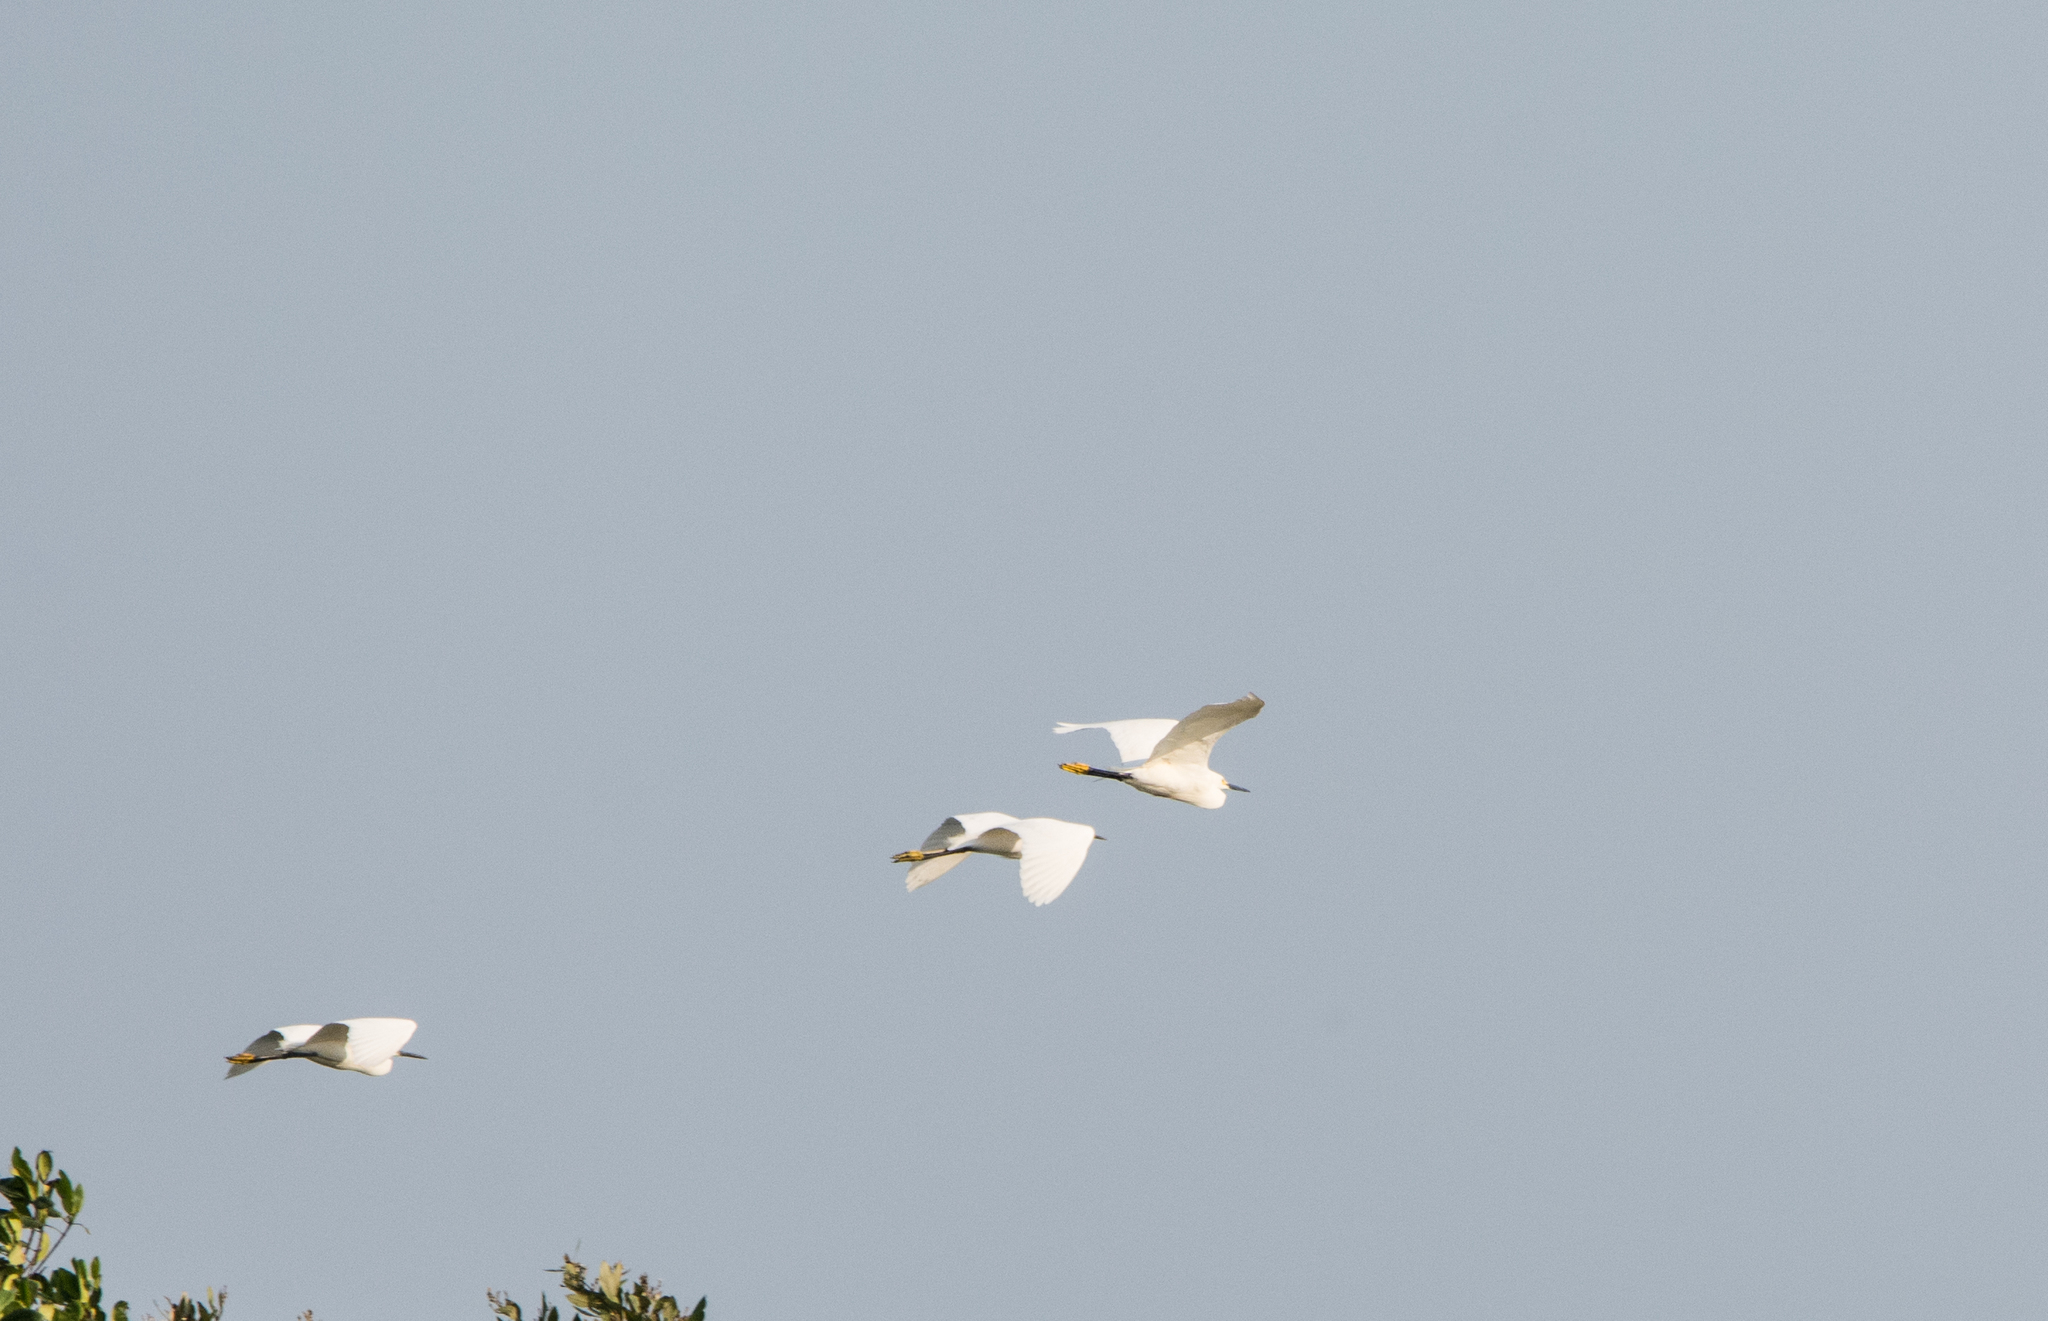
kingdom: Animalia
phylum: Chordata
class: Aves
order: Pelecaniformes
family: Ardeidae
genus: Egretta
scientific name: Egretta thula
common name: Snowy egret
